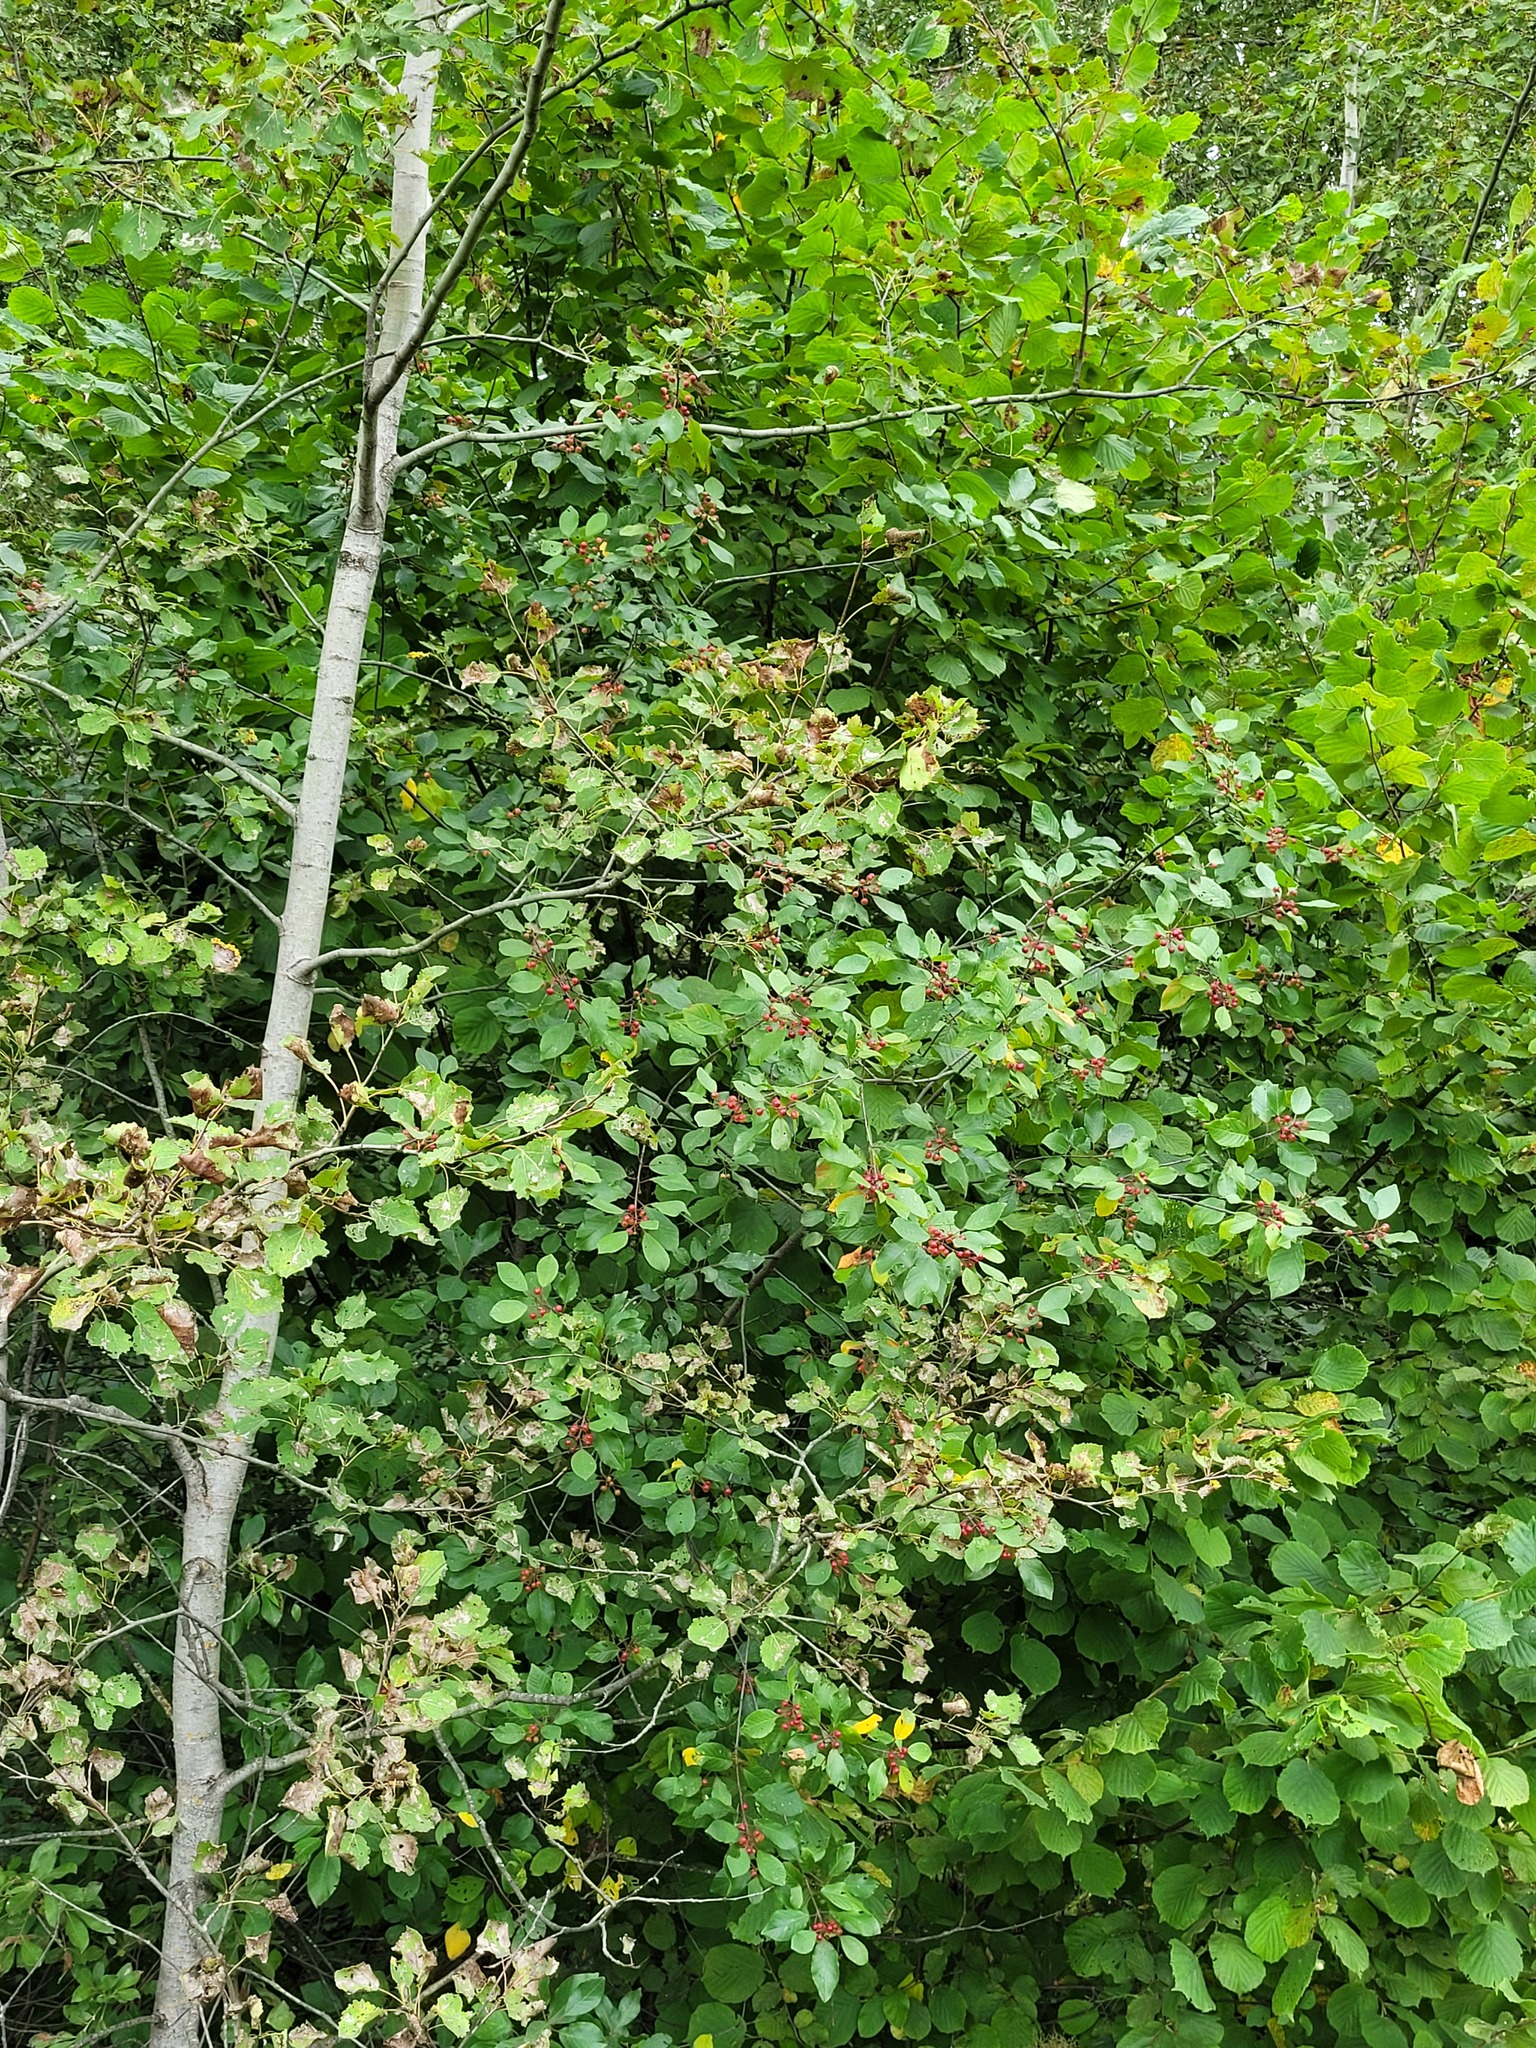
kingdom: Plantae
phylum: Tracheophyta
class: Magnoliopsida
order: Rosales
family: Rhamnaceae
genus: Frangula
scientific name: Frangula alnus
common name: Alder buckthorn
